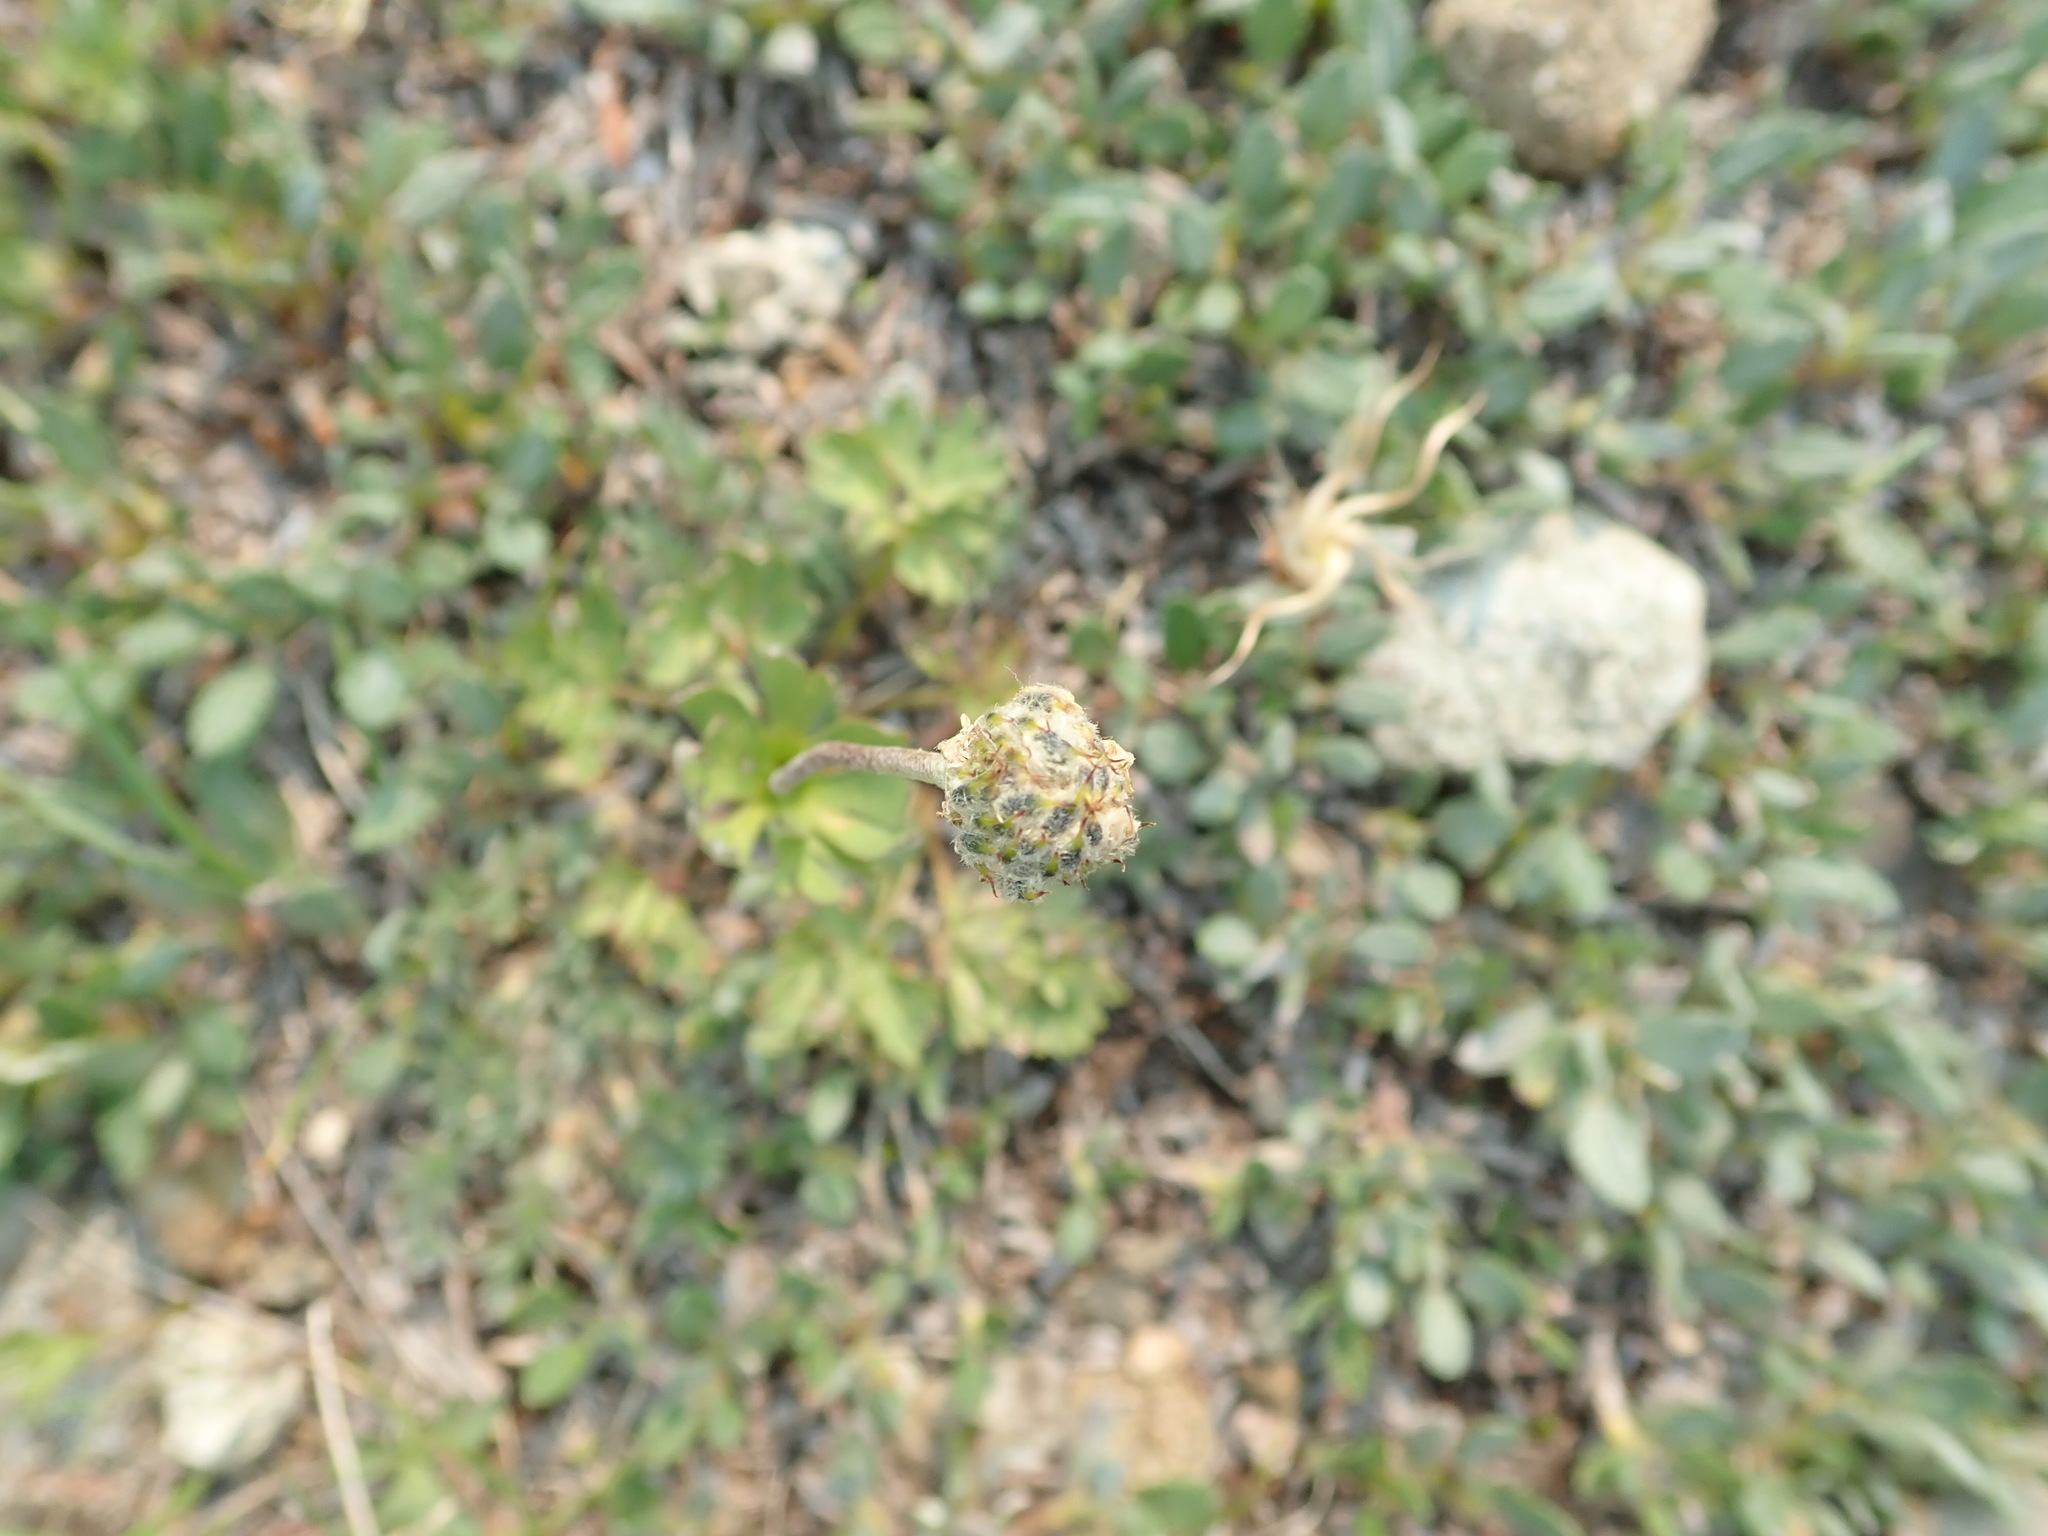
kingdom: Plantae
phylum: Tracheophyta
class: Magnoliopsida
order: Ranunculales
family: Ranunculaceae
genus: Anemone
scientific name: Anemone lithophila
